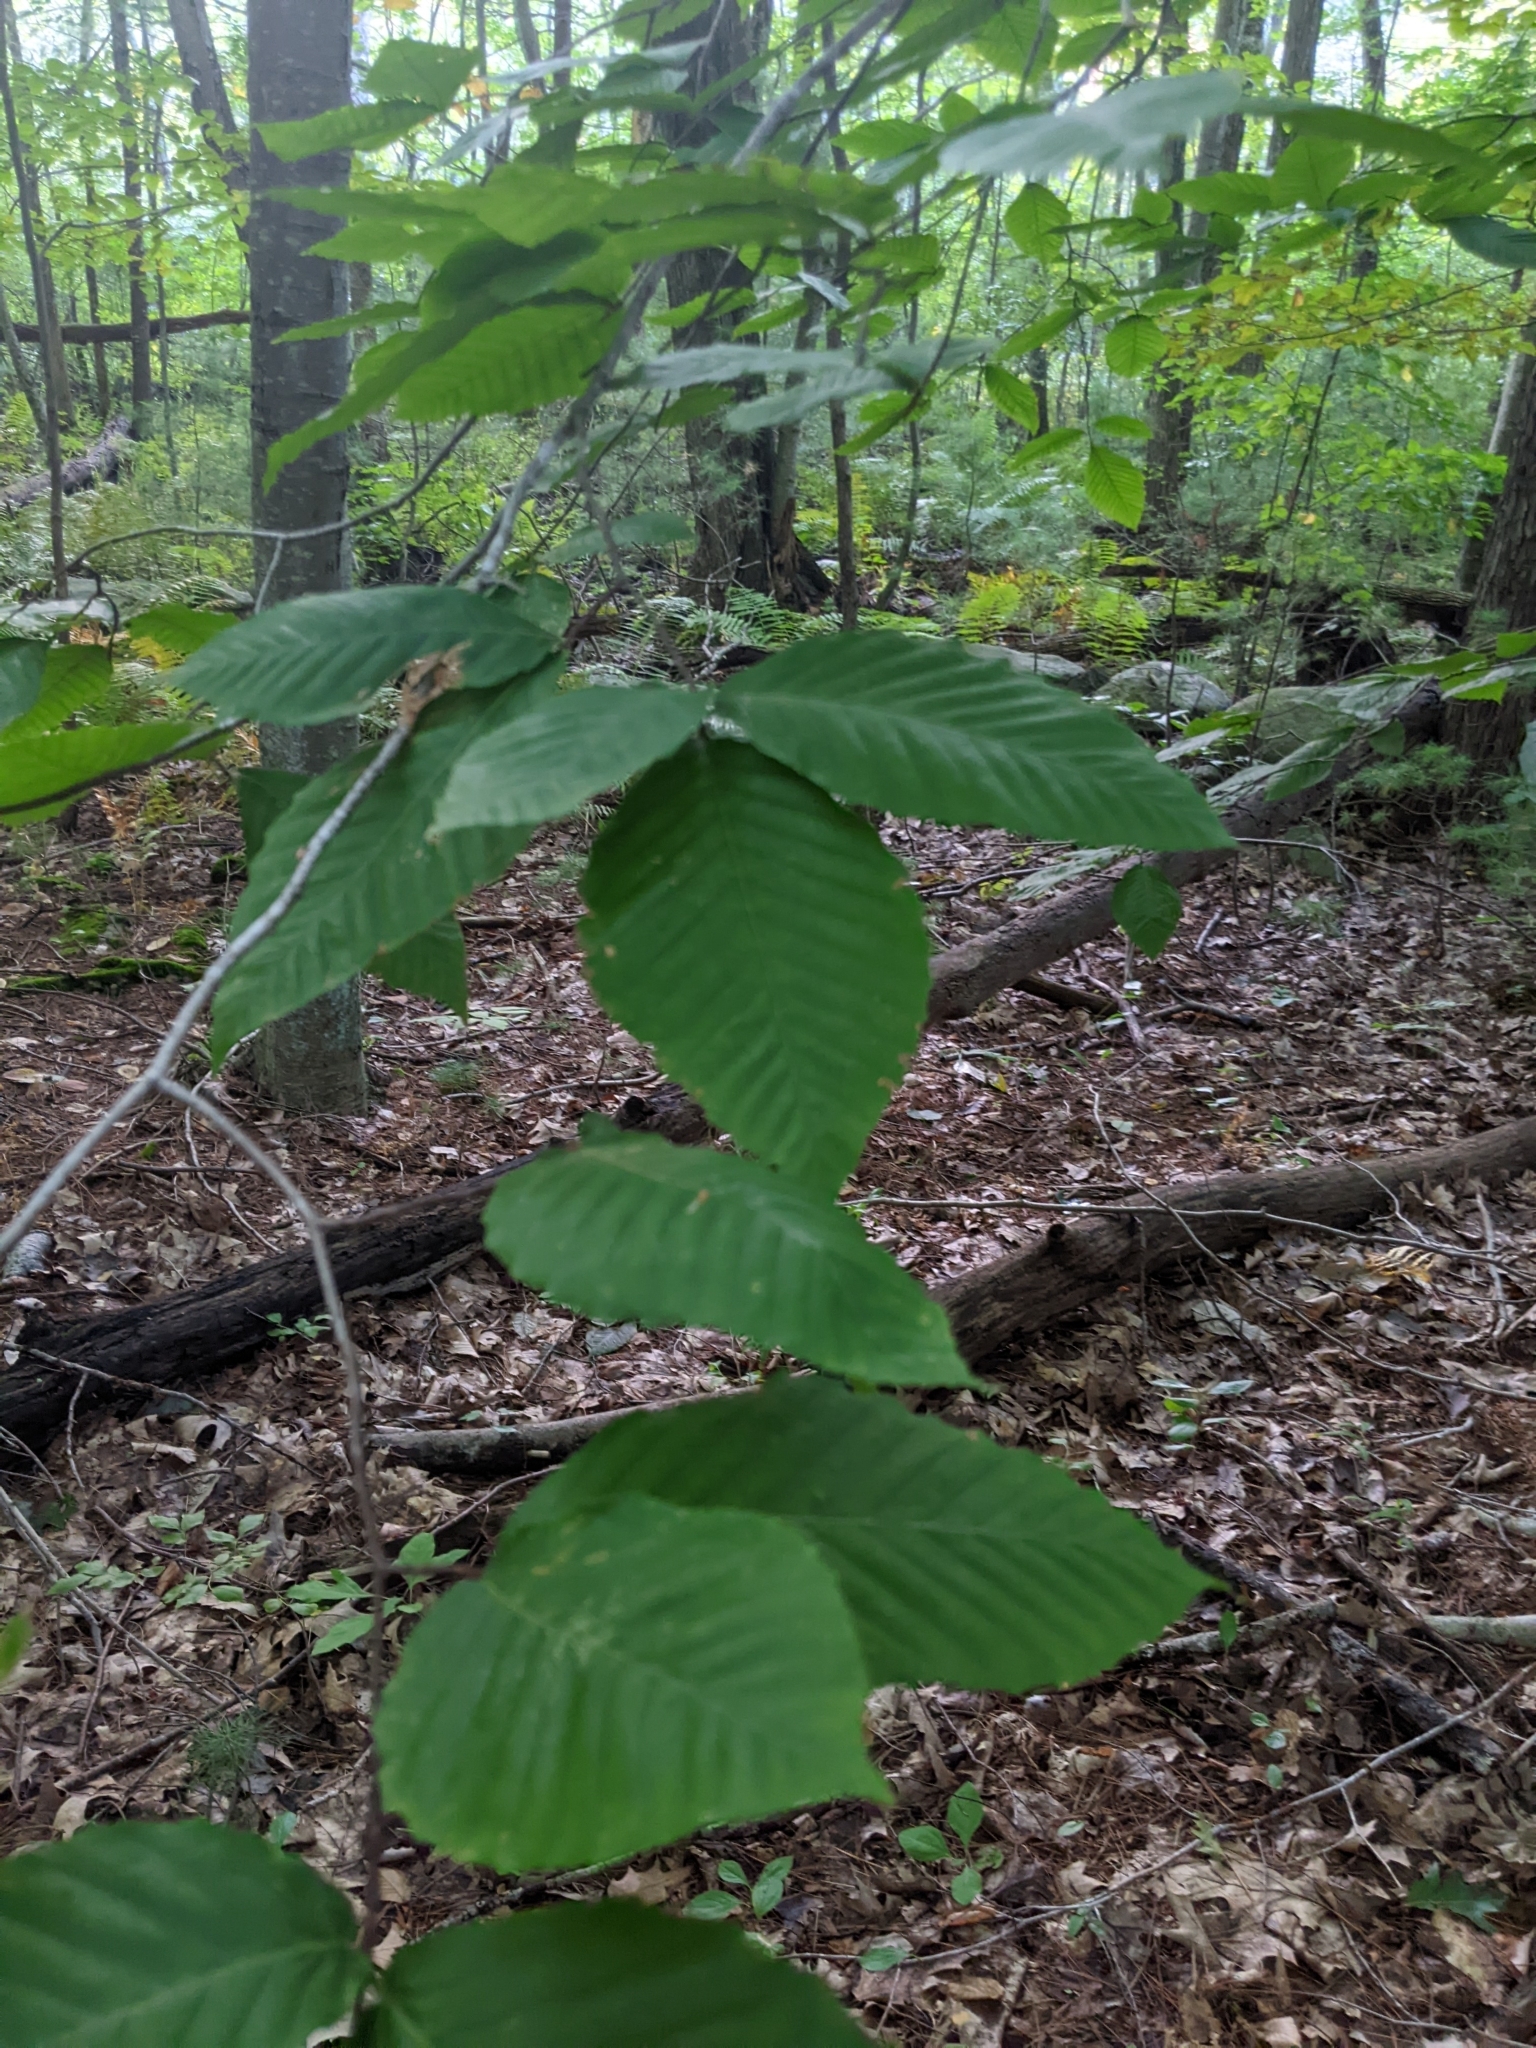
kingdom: Plantae
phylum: Tracheophyta
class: Magnoliopsida
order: Fagales
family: Fagaceae
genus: Fagus
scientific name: Fagus grandifolia
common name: American beech
